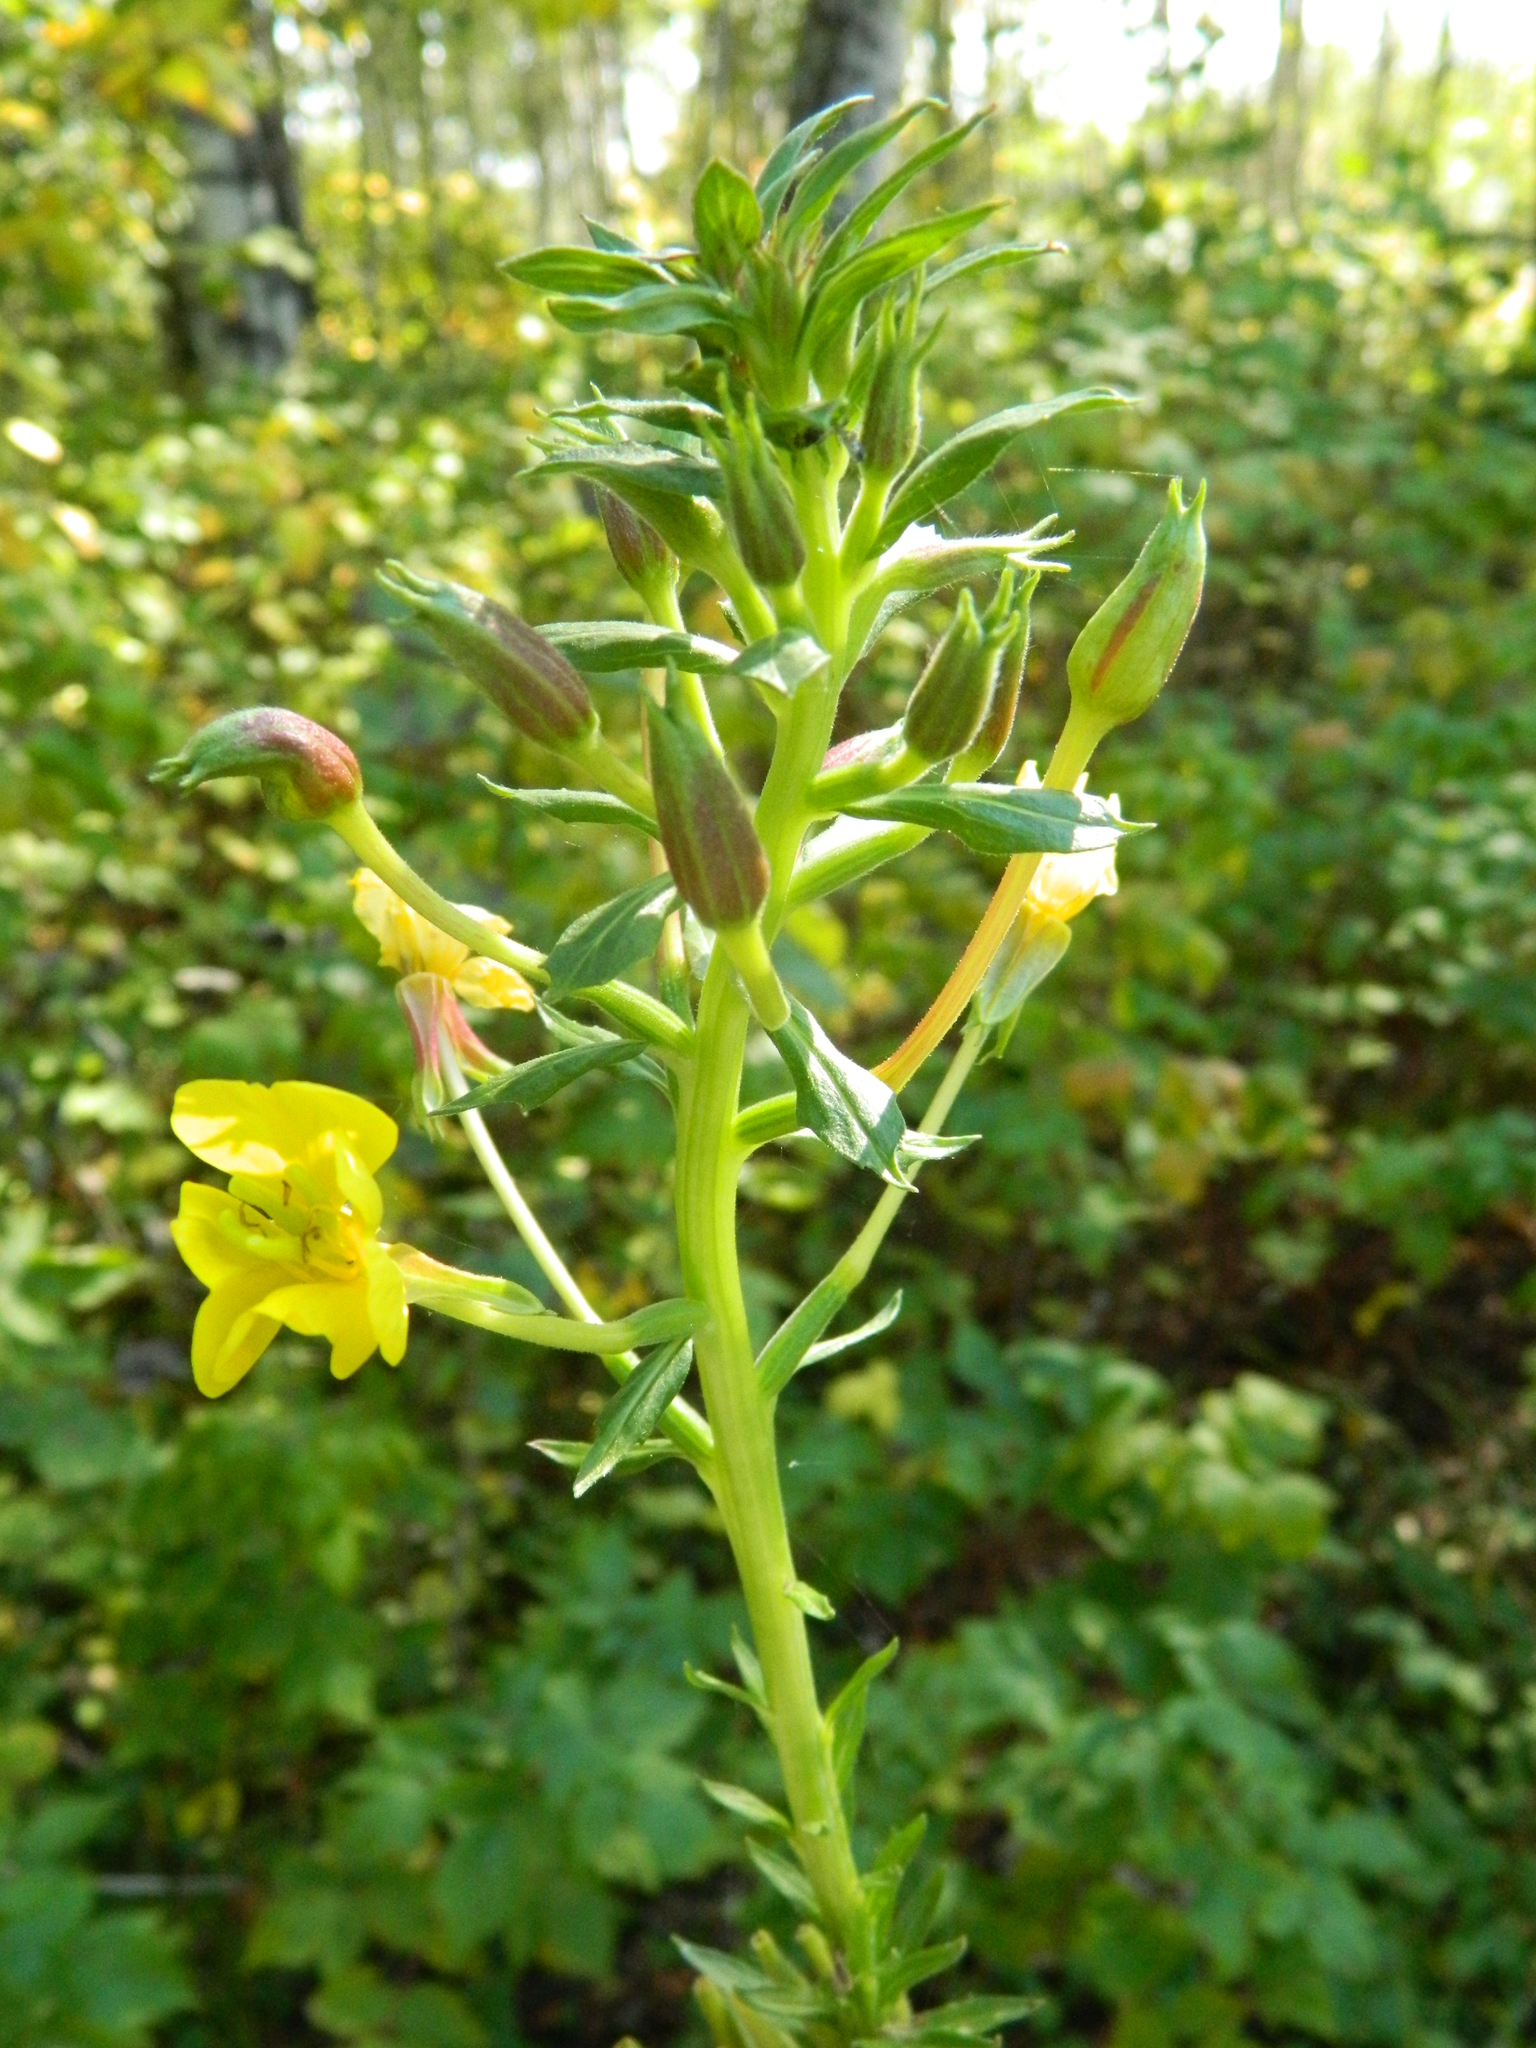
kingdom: Plantae
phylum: Tracheophyta
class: Magnoliopsida
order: Myrtales
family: Onagraceae
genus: Oenothera
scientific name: Oenothera biennis
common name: Common evening-primrose
